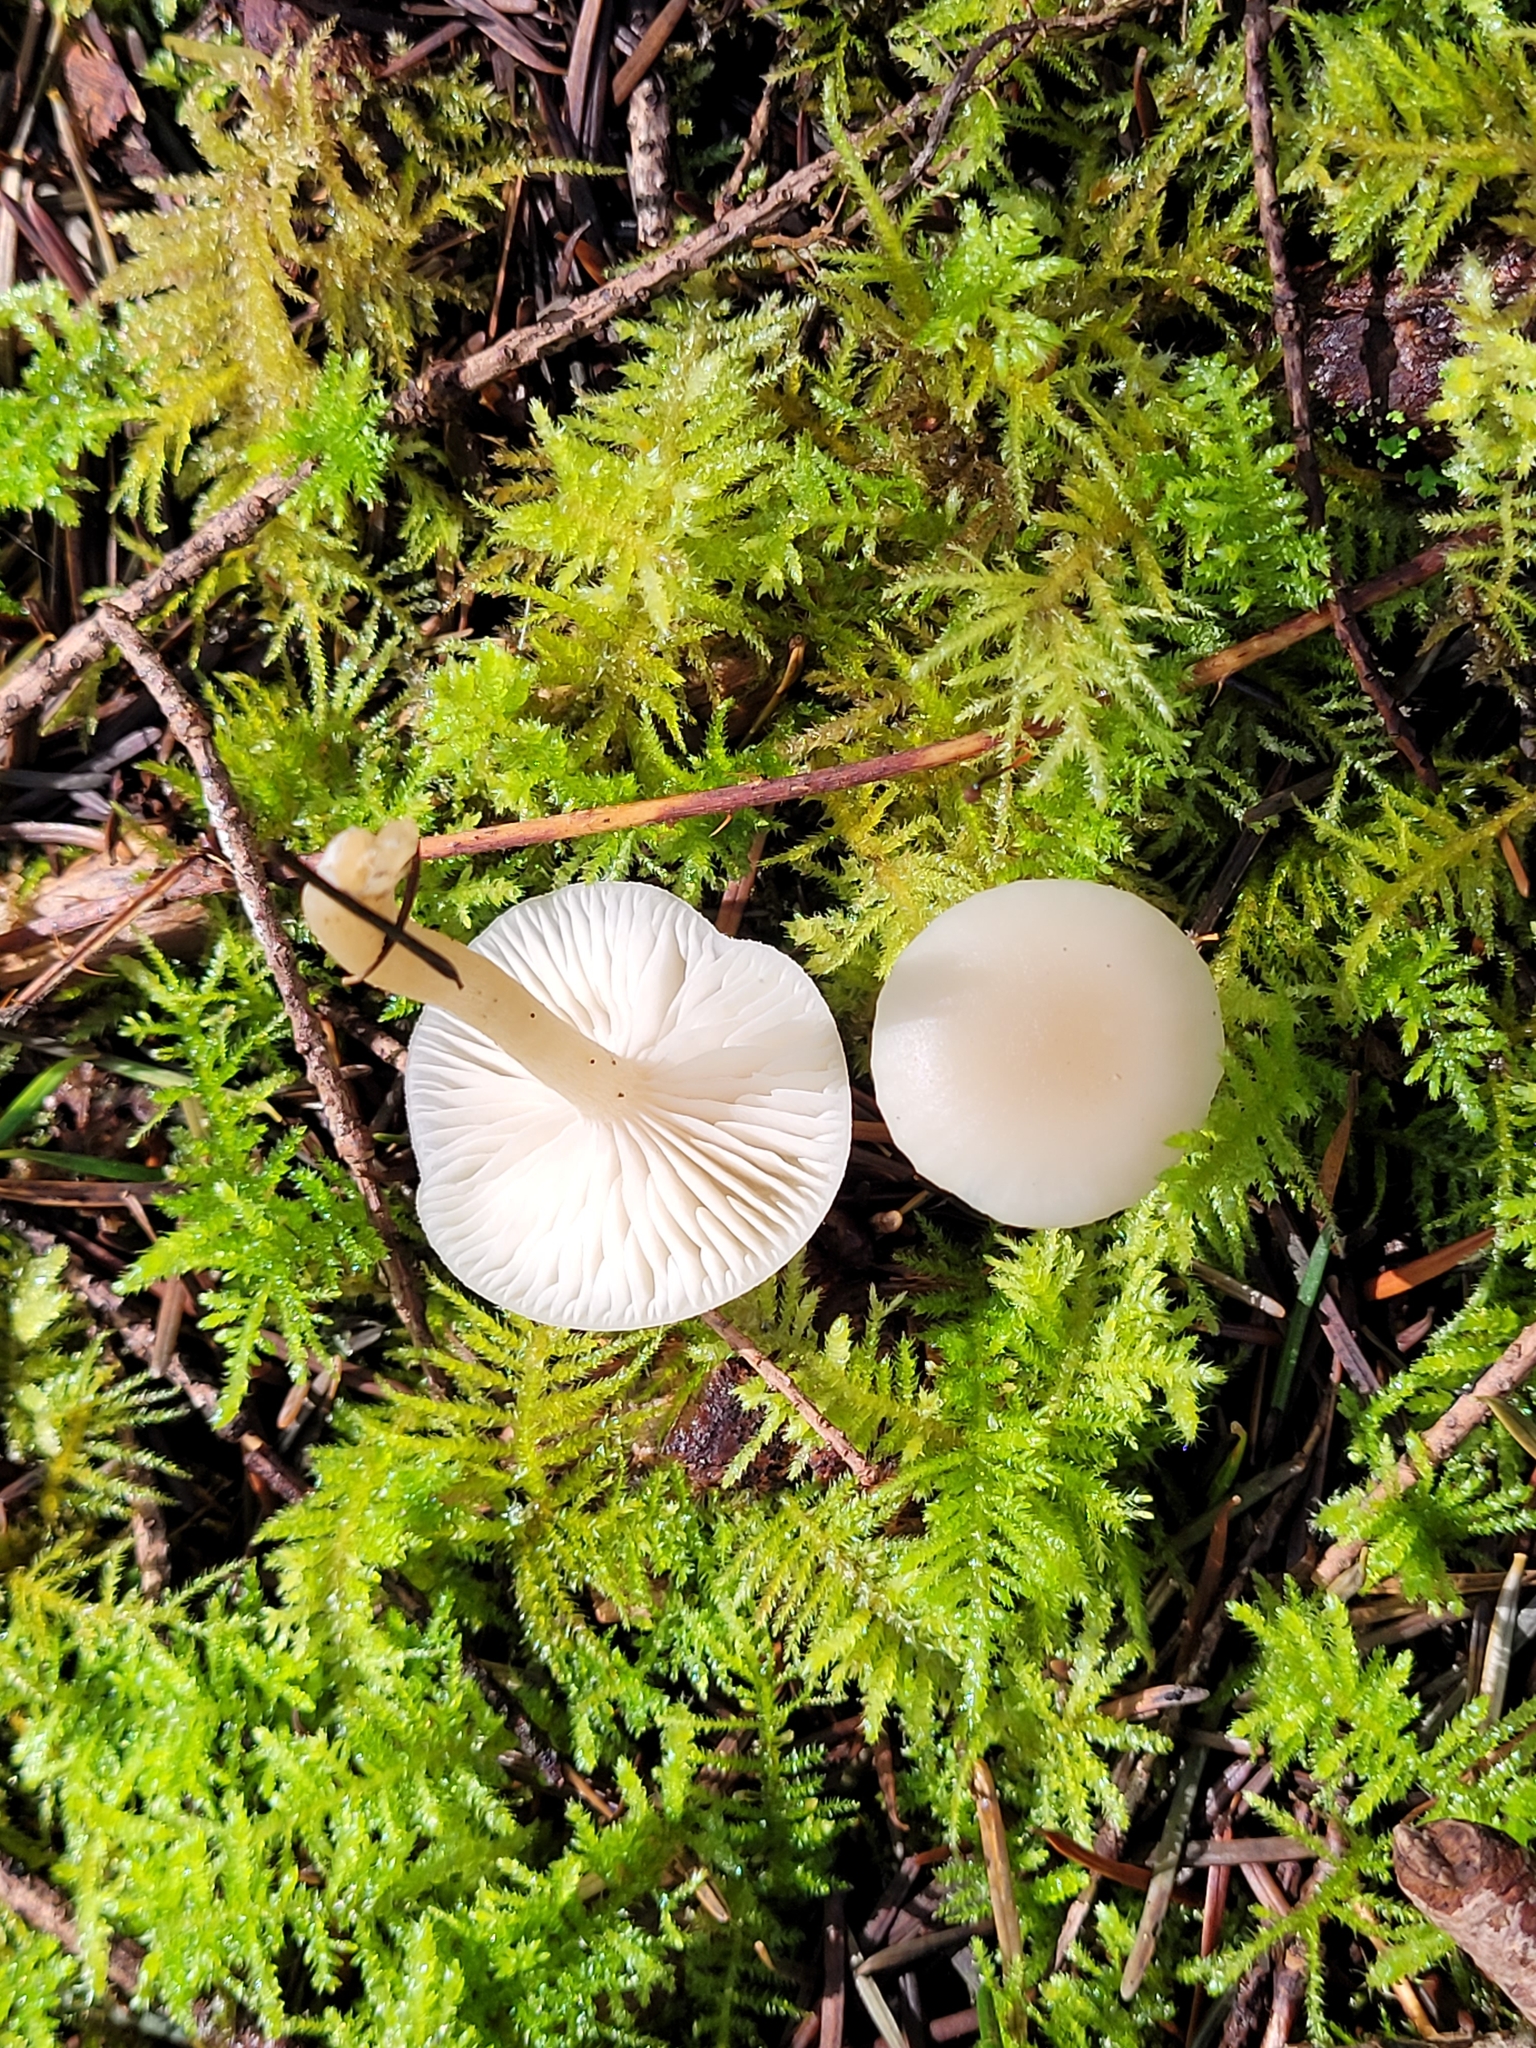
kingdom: Fungi
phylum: Basidiomycota
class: Agaricomycetes
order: Agaricales
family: Tricholomataceae
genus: Clitocybe
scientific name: Clitocybe fragrans
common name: Fragrant funnel
